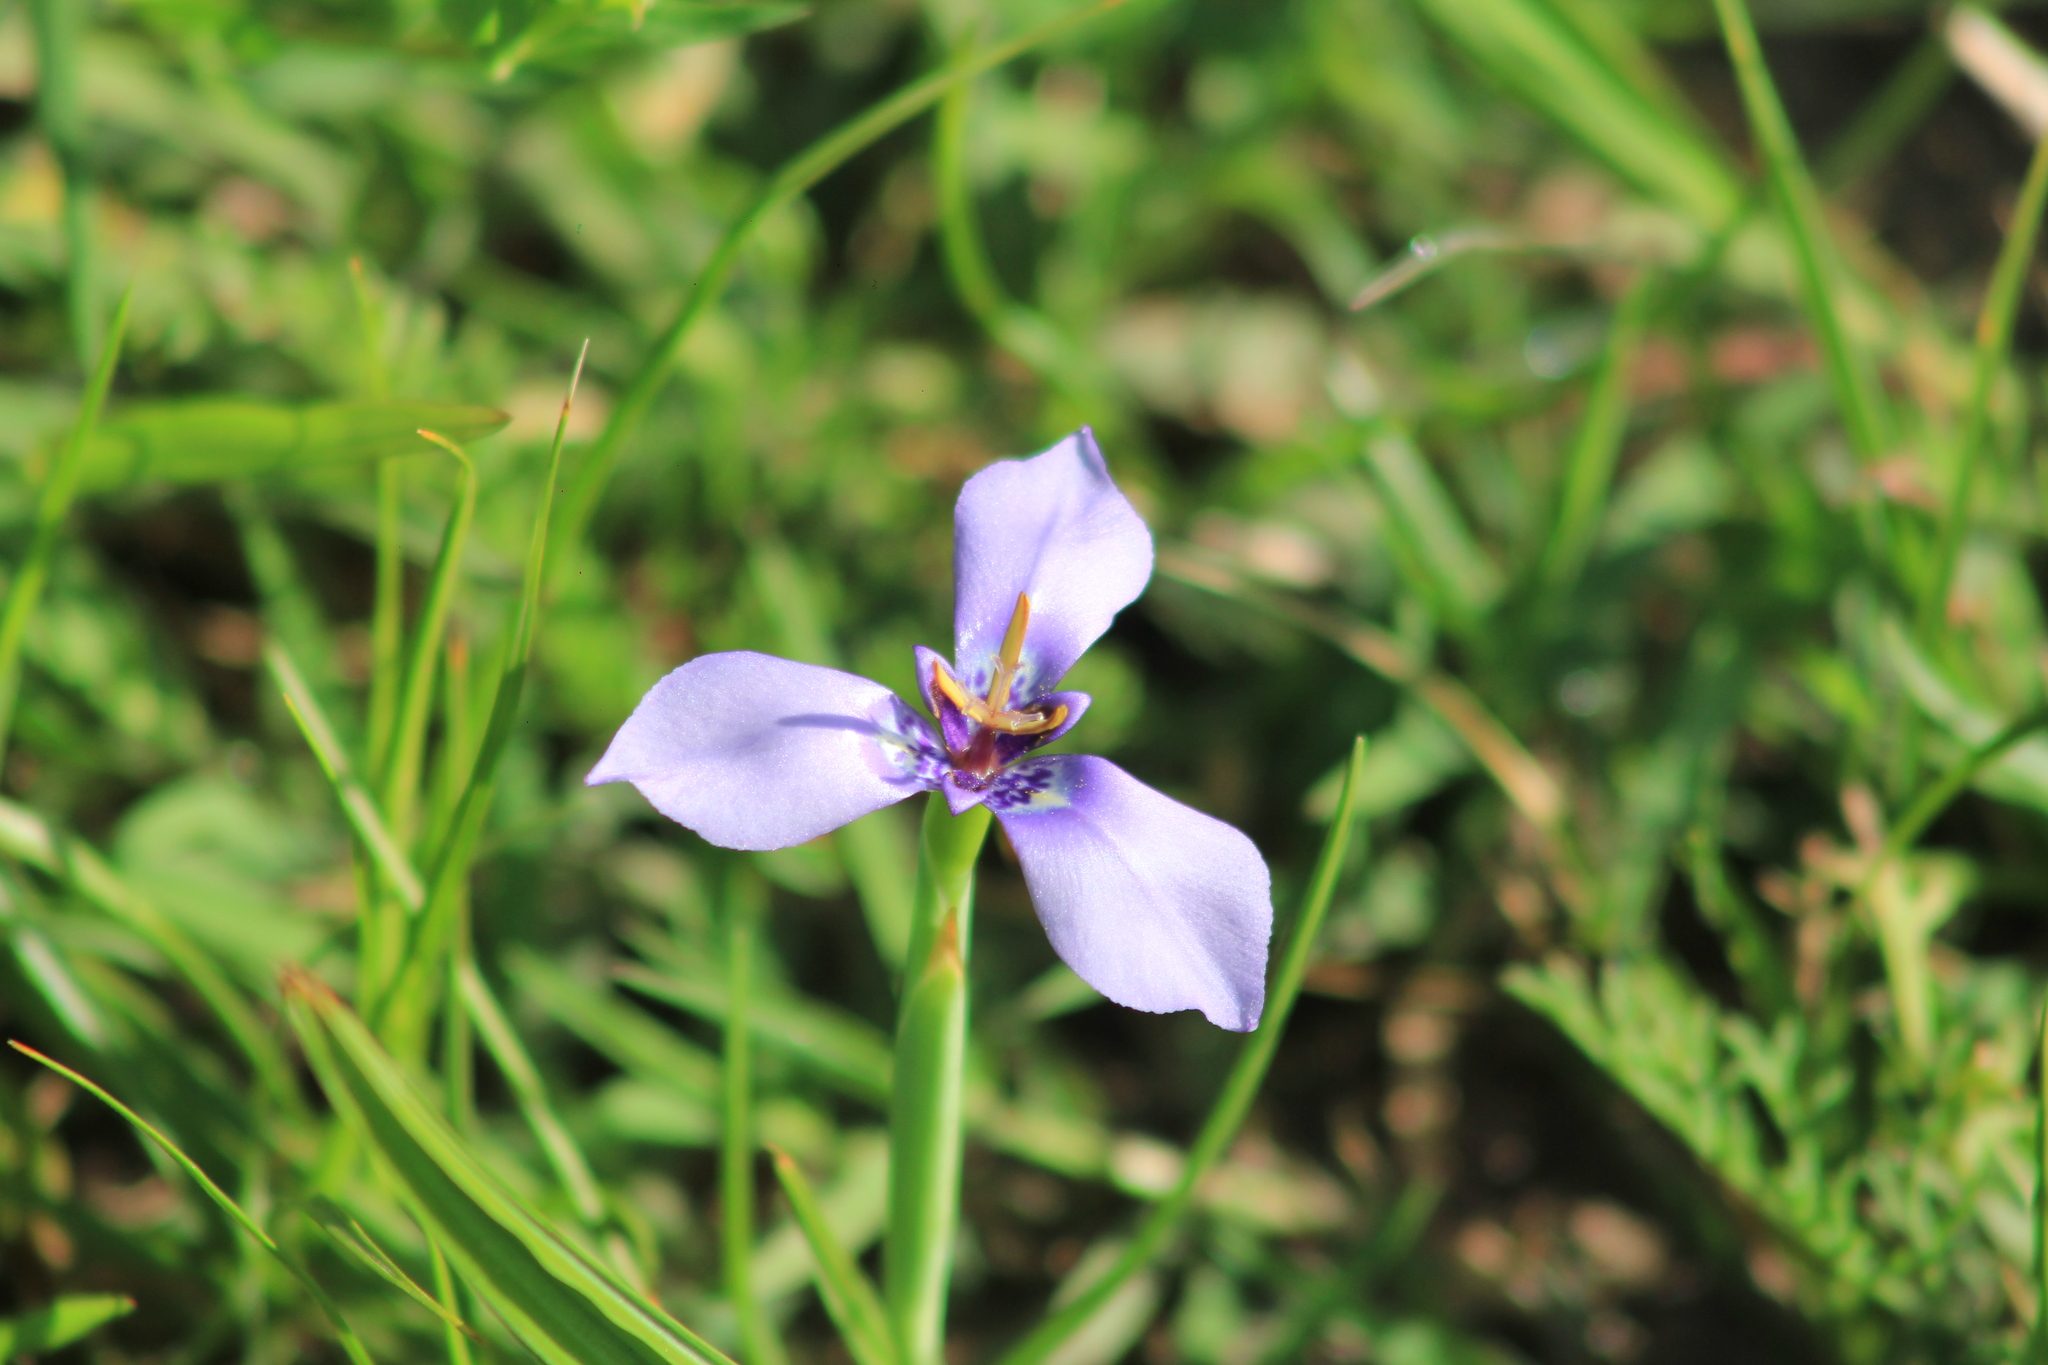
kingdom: Plantae
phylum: Tracheophyta
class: Liliopsida
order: Asparagales
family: Iridaceae
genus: Herbertia
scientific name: Herbertia lahue
